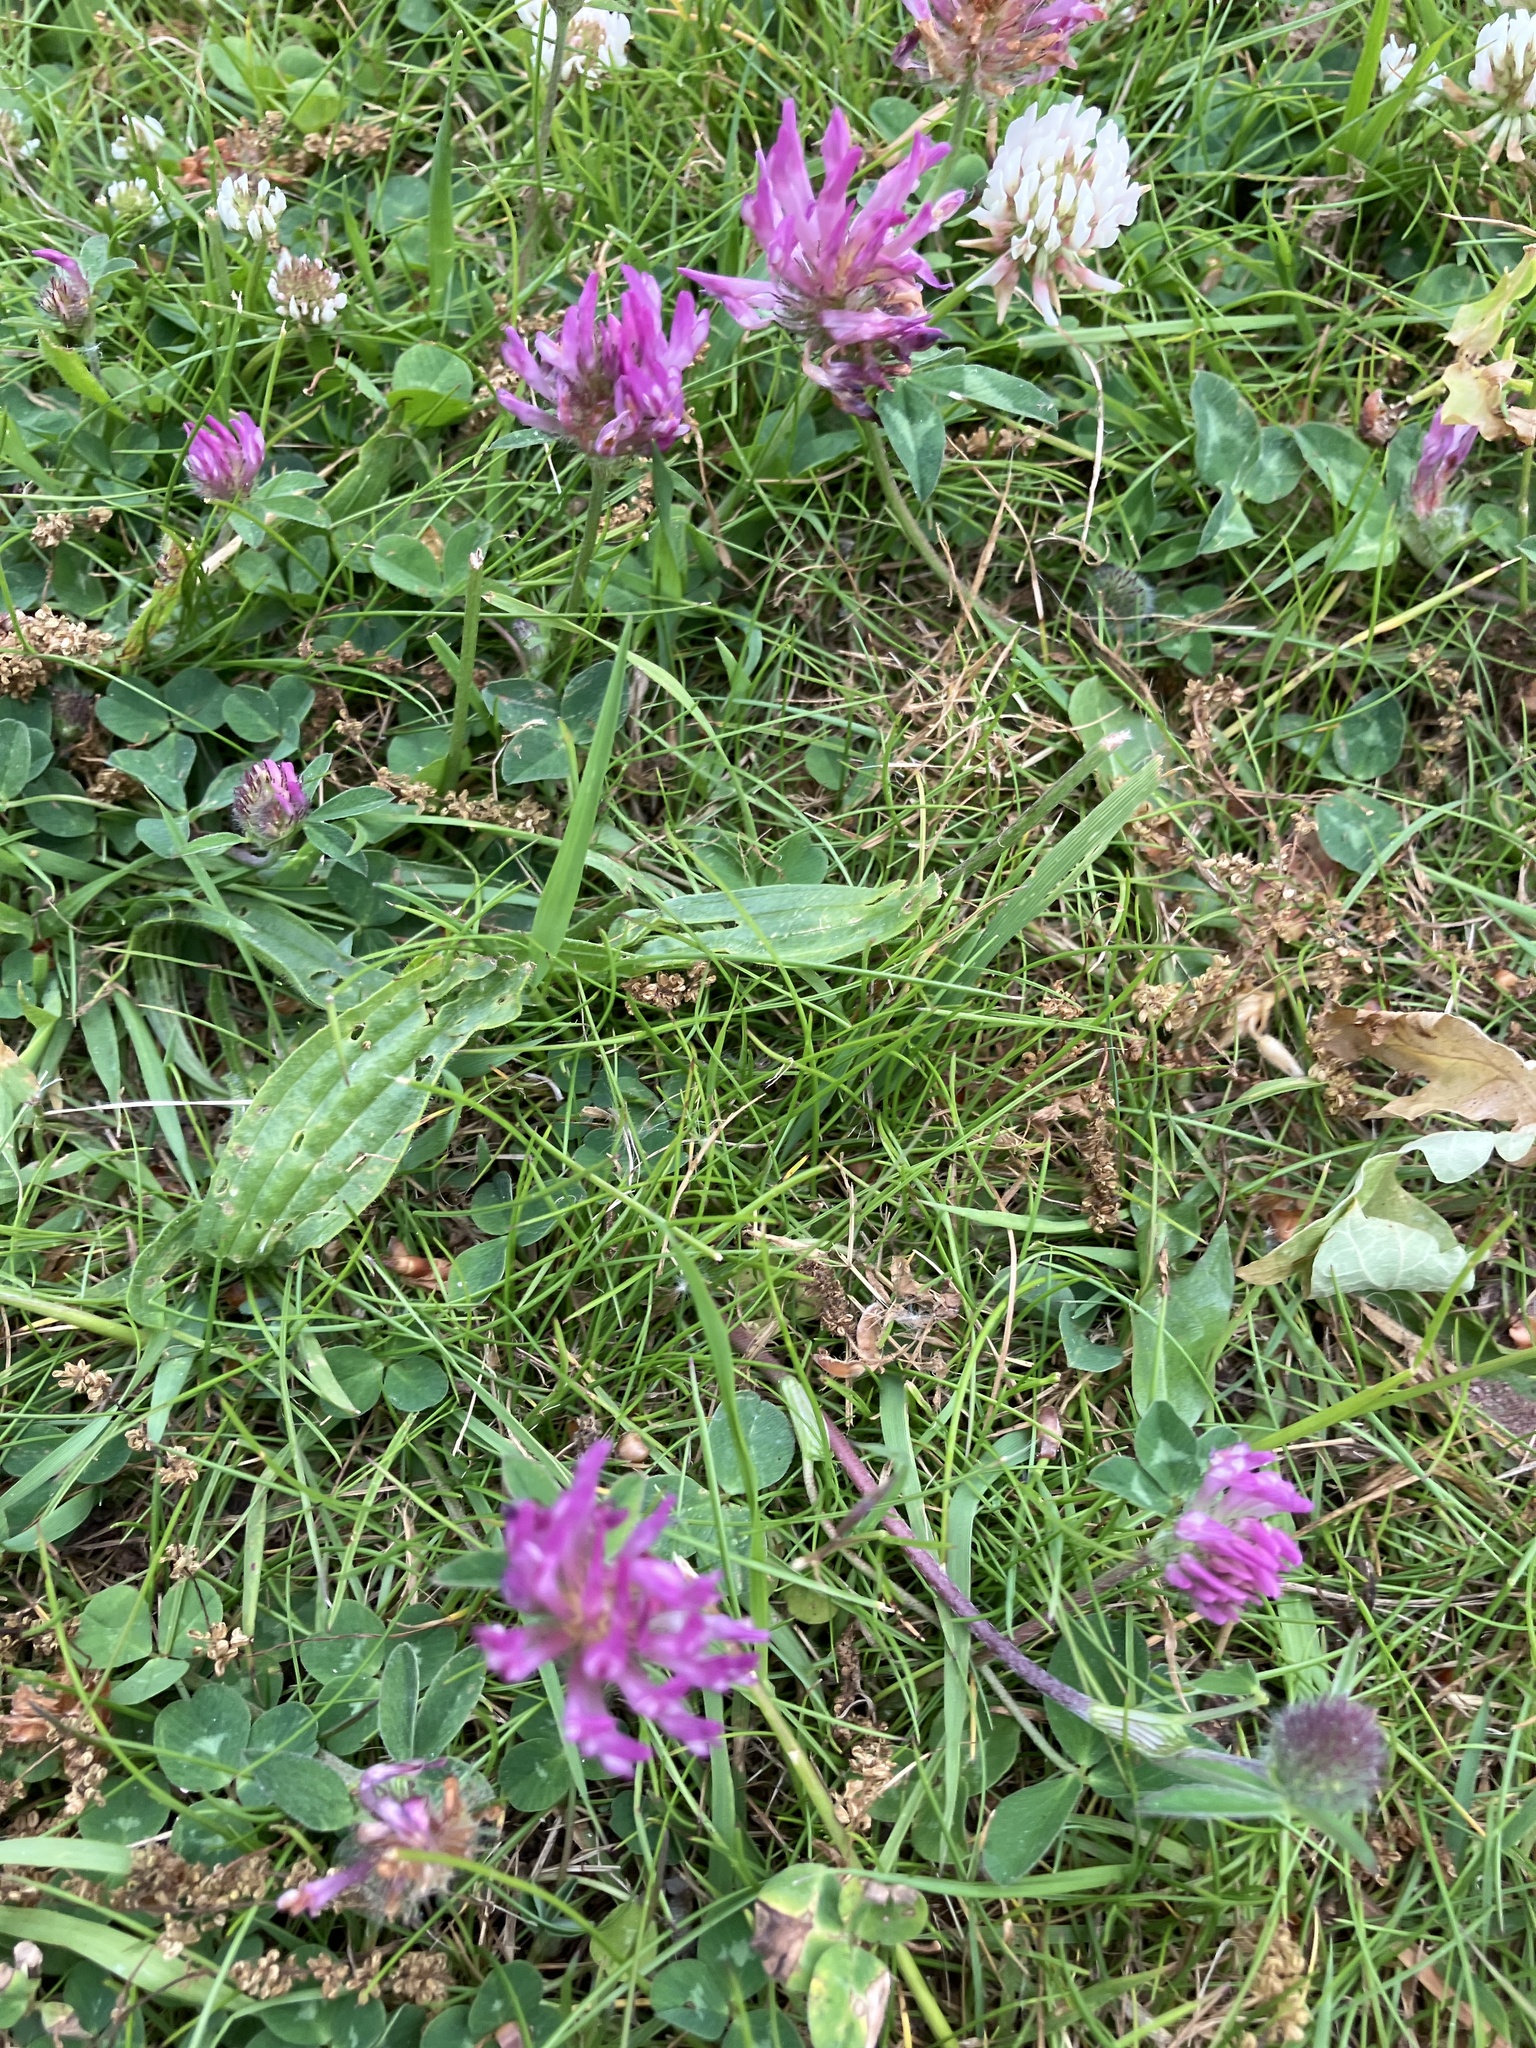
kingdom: Plantae
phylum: Tracheophyta
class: Magnoliopsida
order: Fabales
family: Fabaceae
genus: Trifolium
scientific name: Trifolium pratense
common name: Red clover
